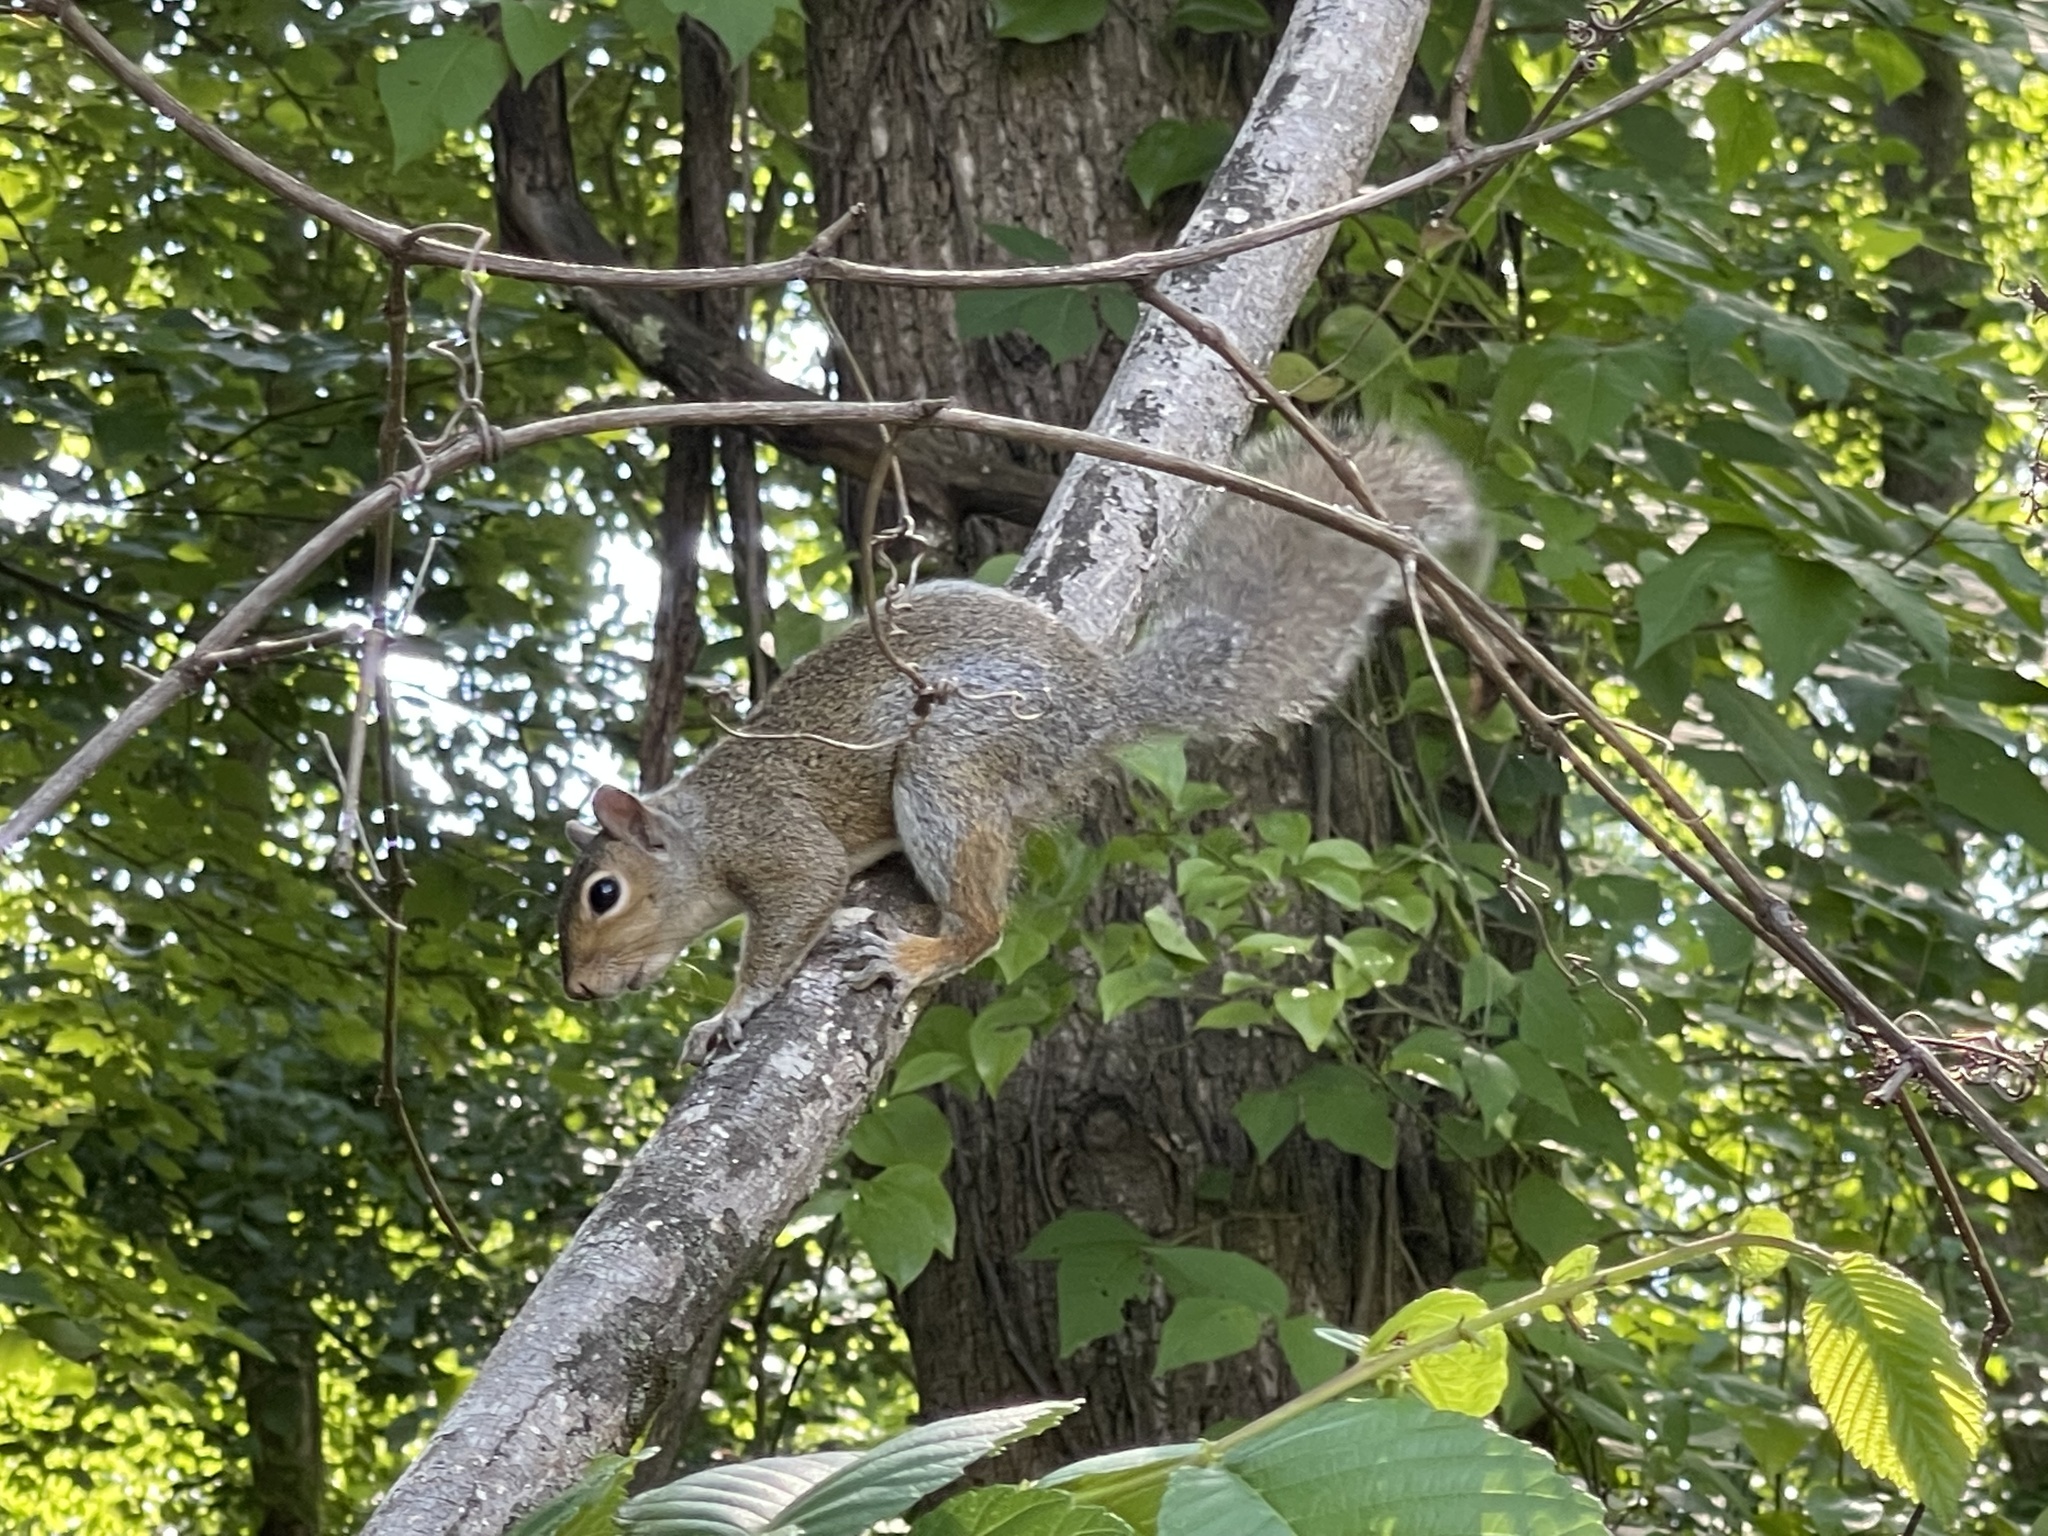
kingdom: Animalia
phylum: Chordata
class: Mammalia
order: Rodentia
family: Sciuridae
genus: Sciurus
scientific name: Sciurus carolinensis
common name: Eastern gray squirrel
